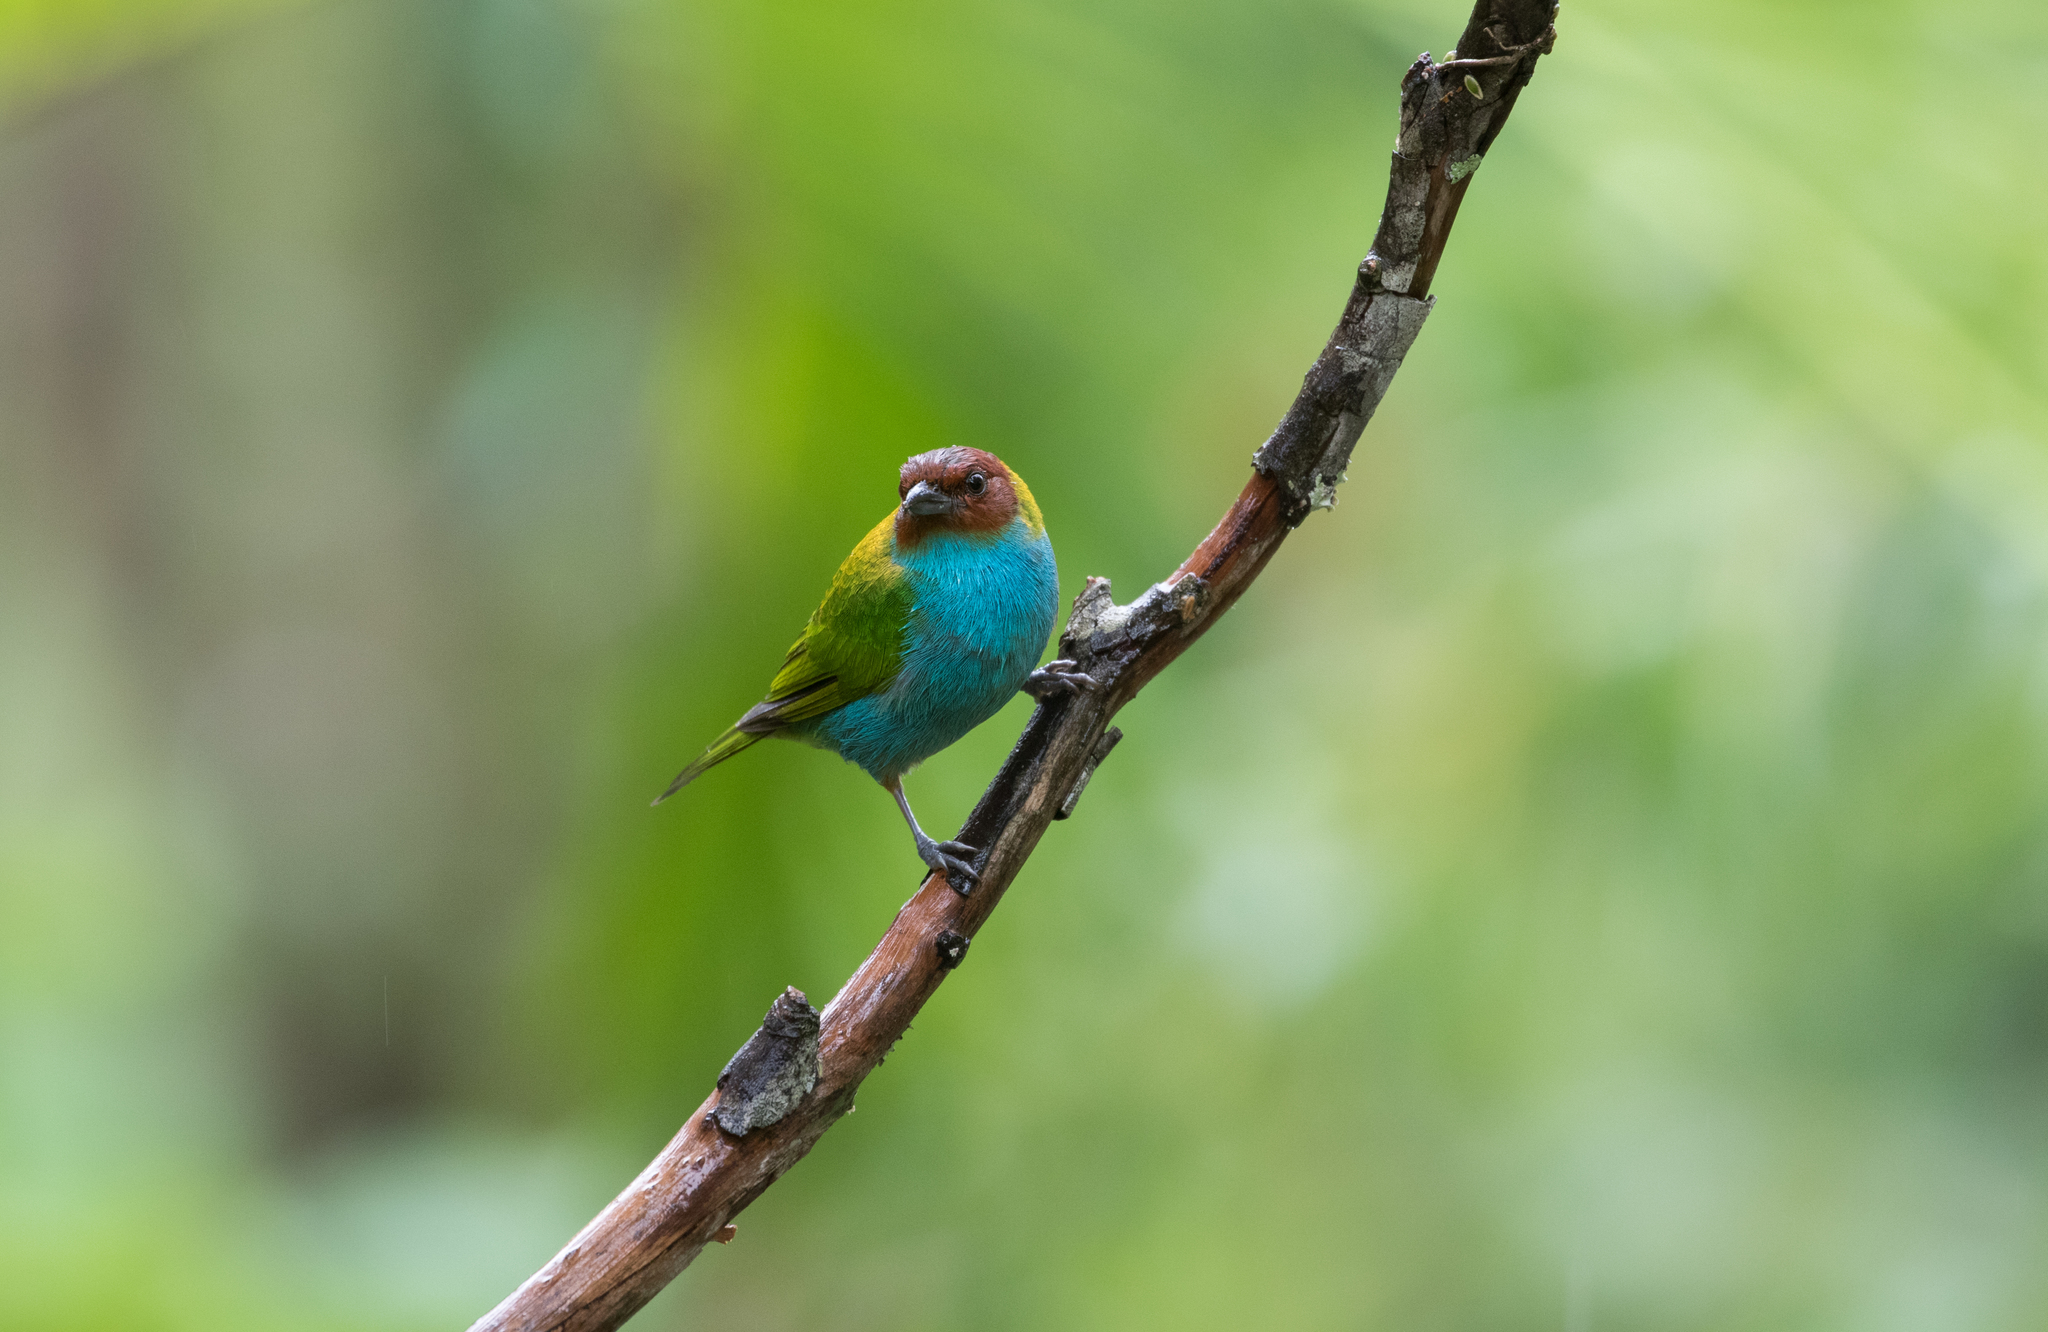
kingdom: Animalia
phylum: Chordata
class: Aves
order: Passeriformes
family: Thraupidae
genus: Tangara
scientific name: Tangara gyrola
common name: Bay-headed tanager
